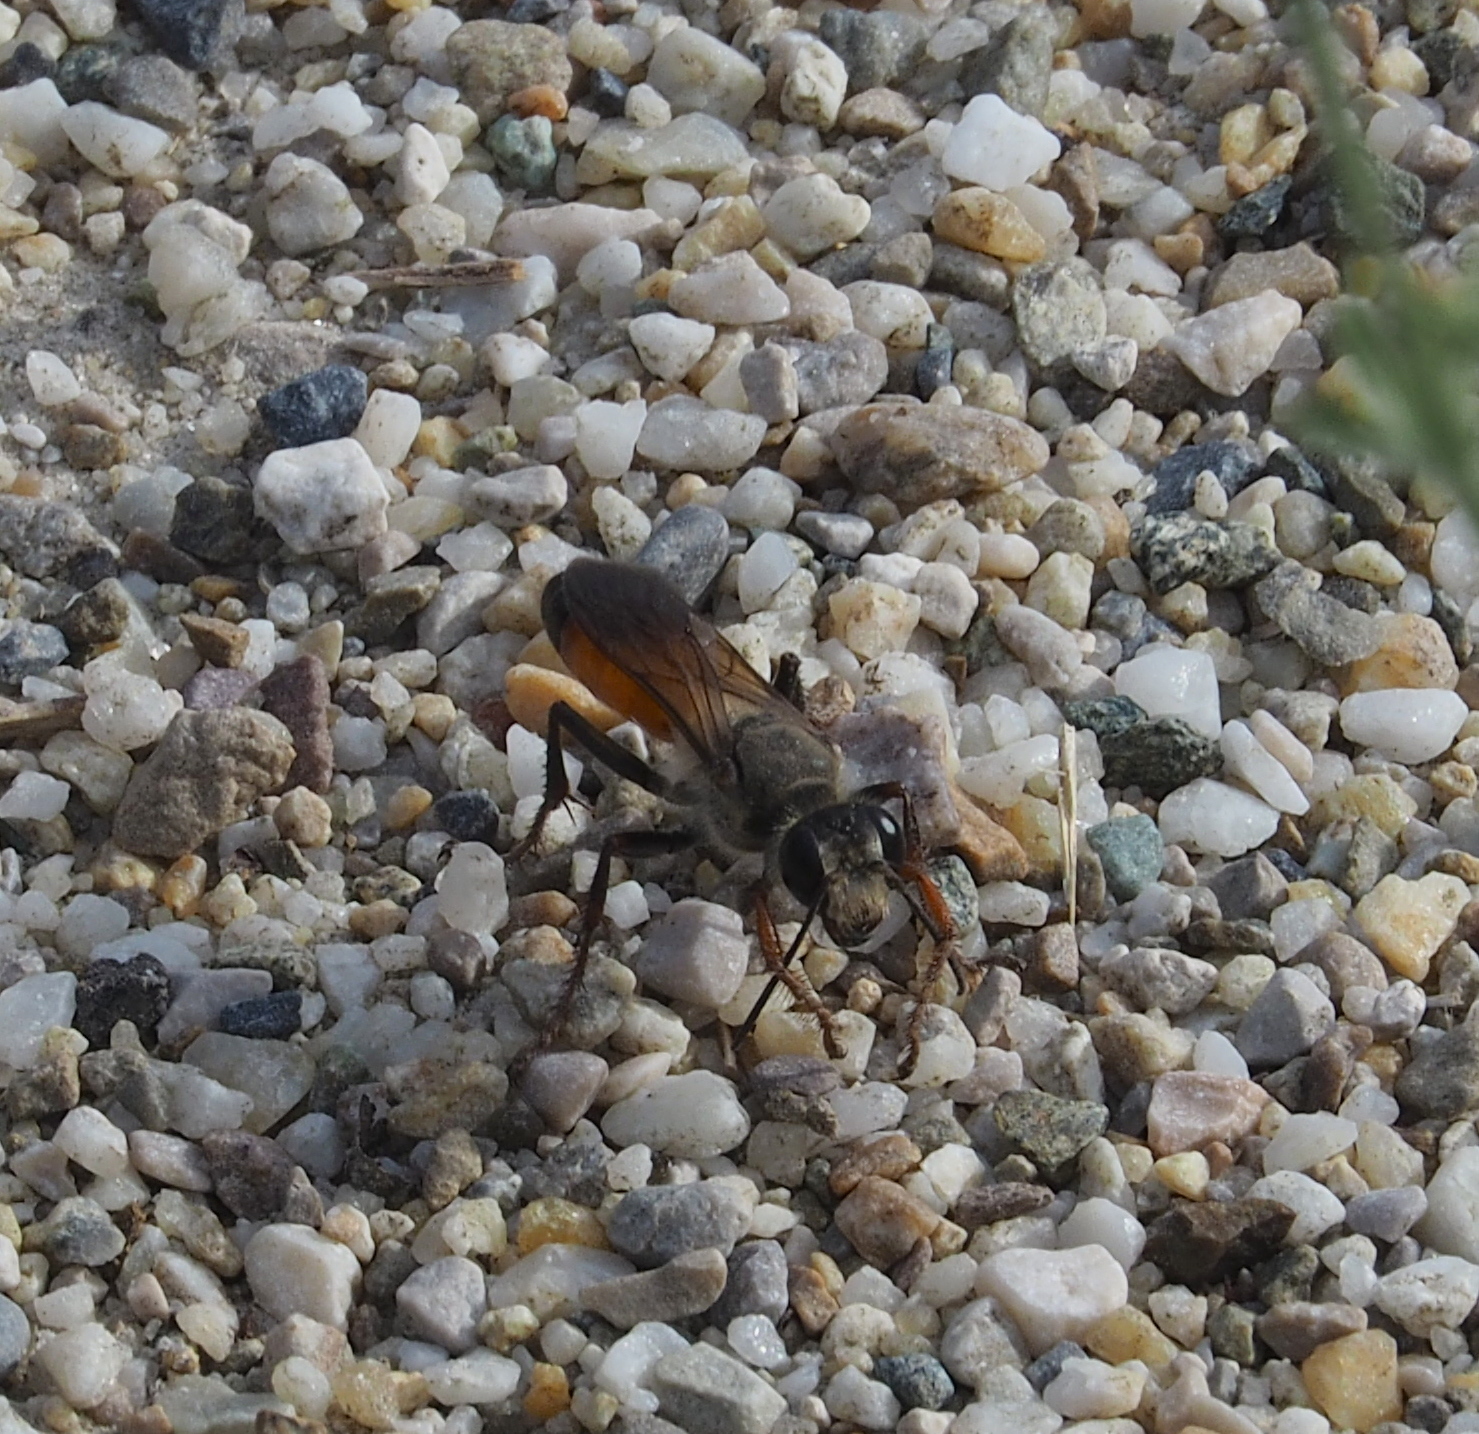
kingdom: Animalia
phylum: Arthropoda
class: Insecta
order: Hymenoptera
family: Sphecidae
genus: Sphex
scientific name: Sphex funerarius
